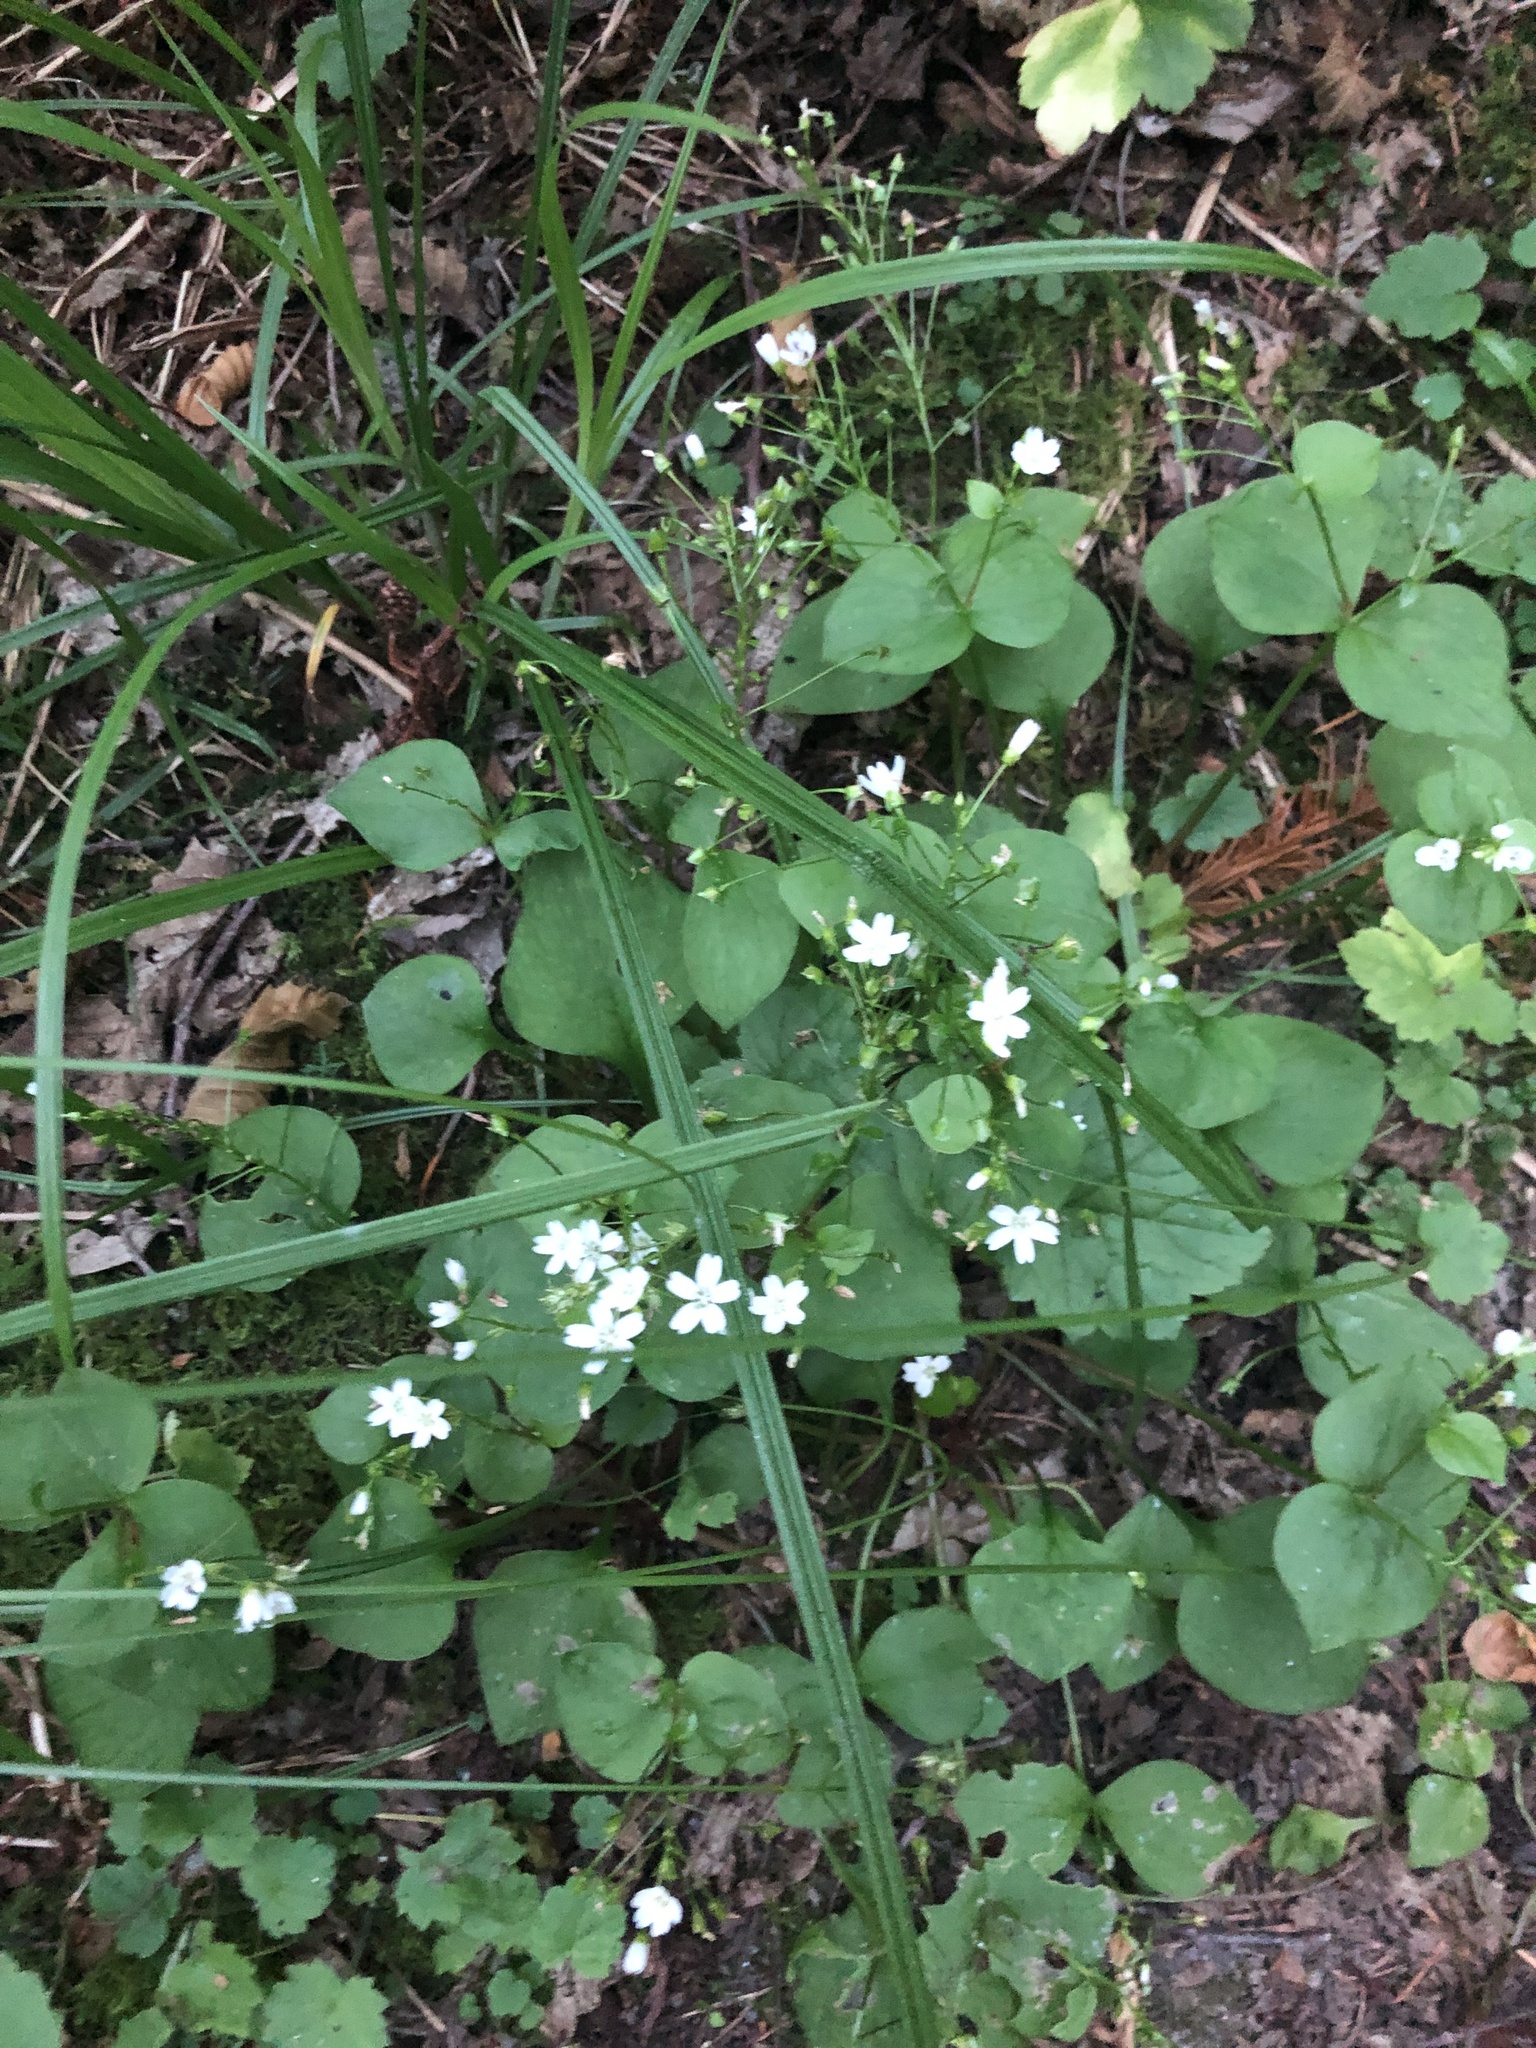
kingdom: Plantae
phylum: Tracheophyta
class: Magnoliopsida
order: Caryophyllales
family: Montiaceae
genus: Claytonia
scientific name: Claytonia sibirica
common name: Pink purslane
